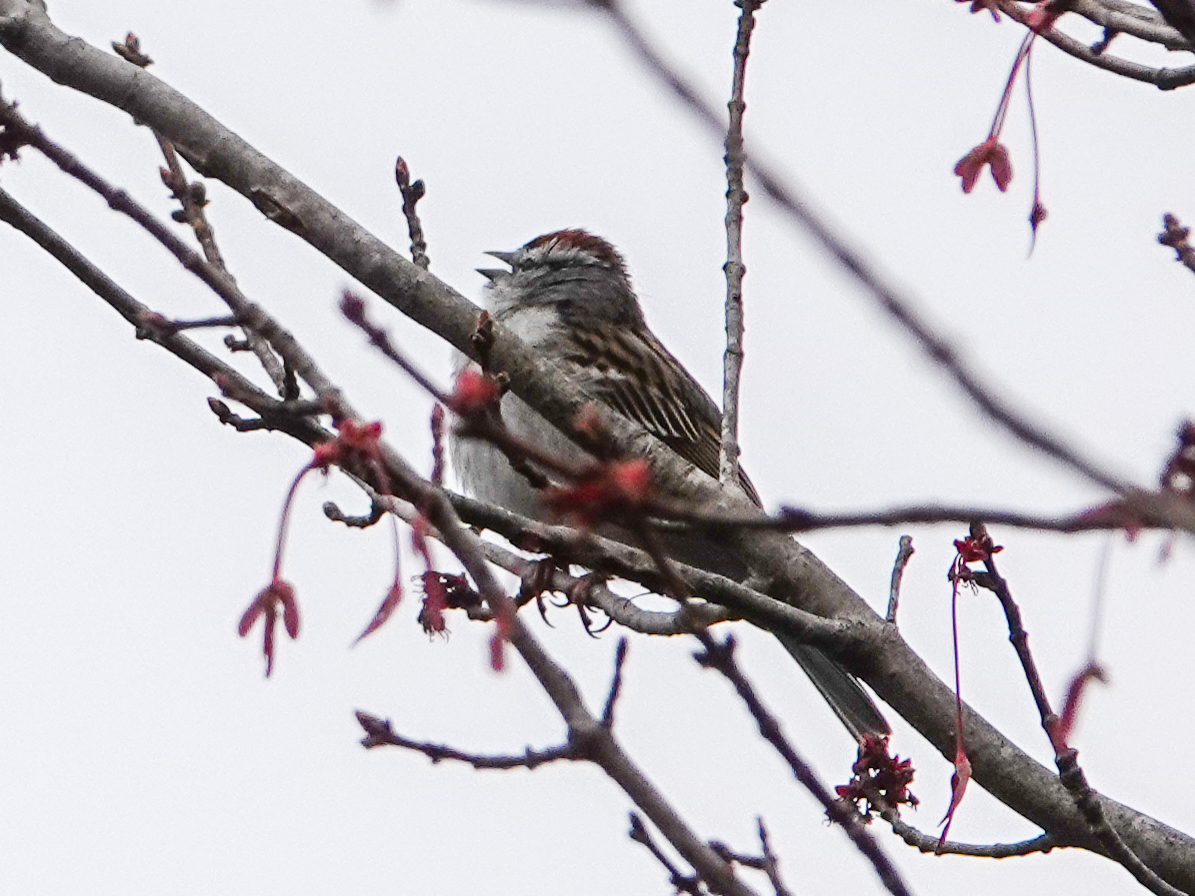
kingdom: Animalia
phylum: Chordata
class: Aves
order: Passeriformes
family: Passerellidae
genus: Spizella
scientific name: Spizella passerina
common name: Chipping sparrow
